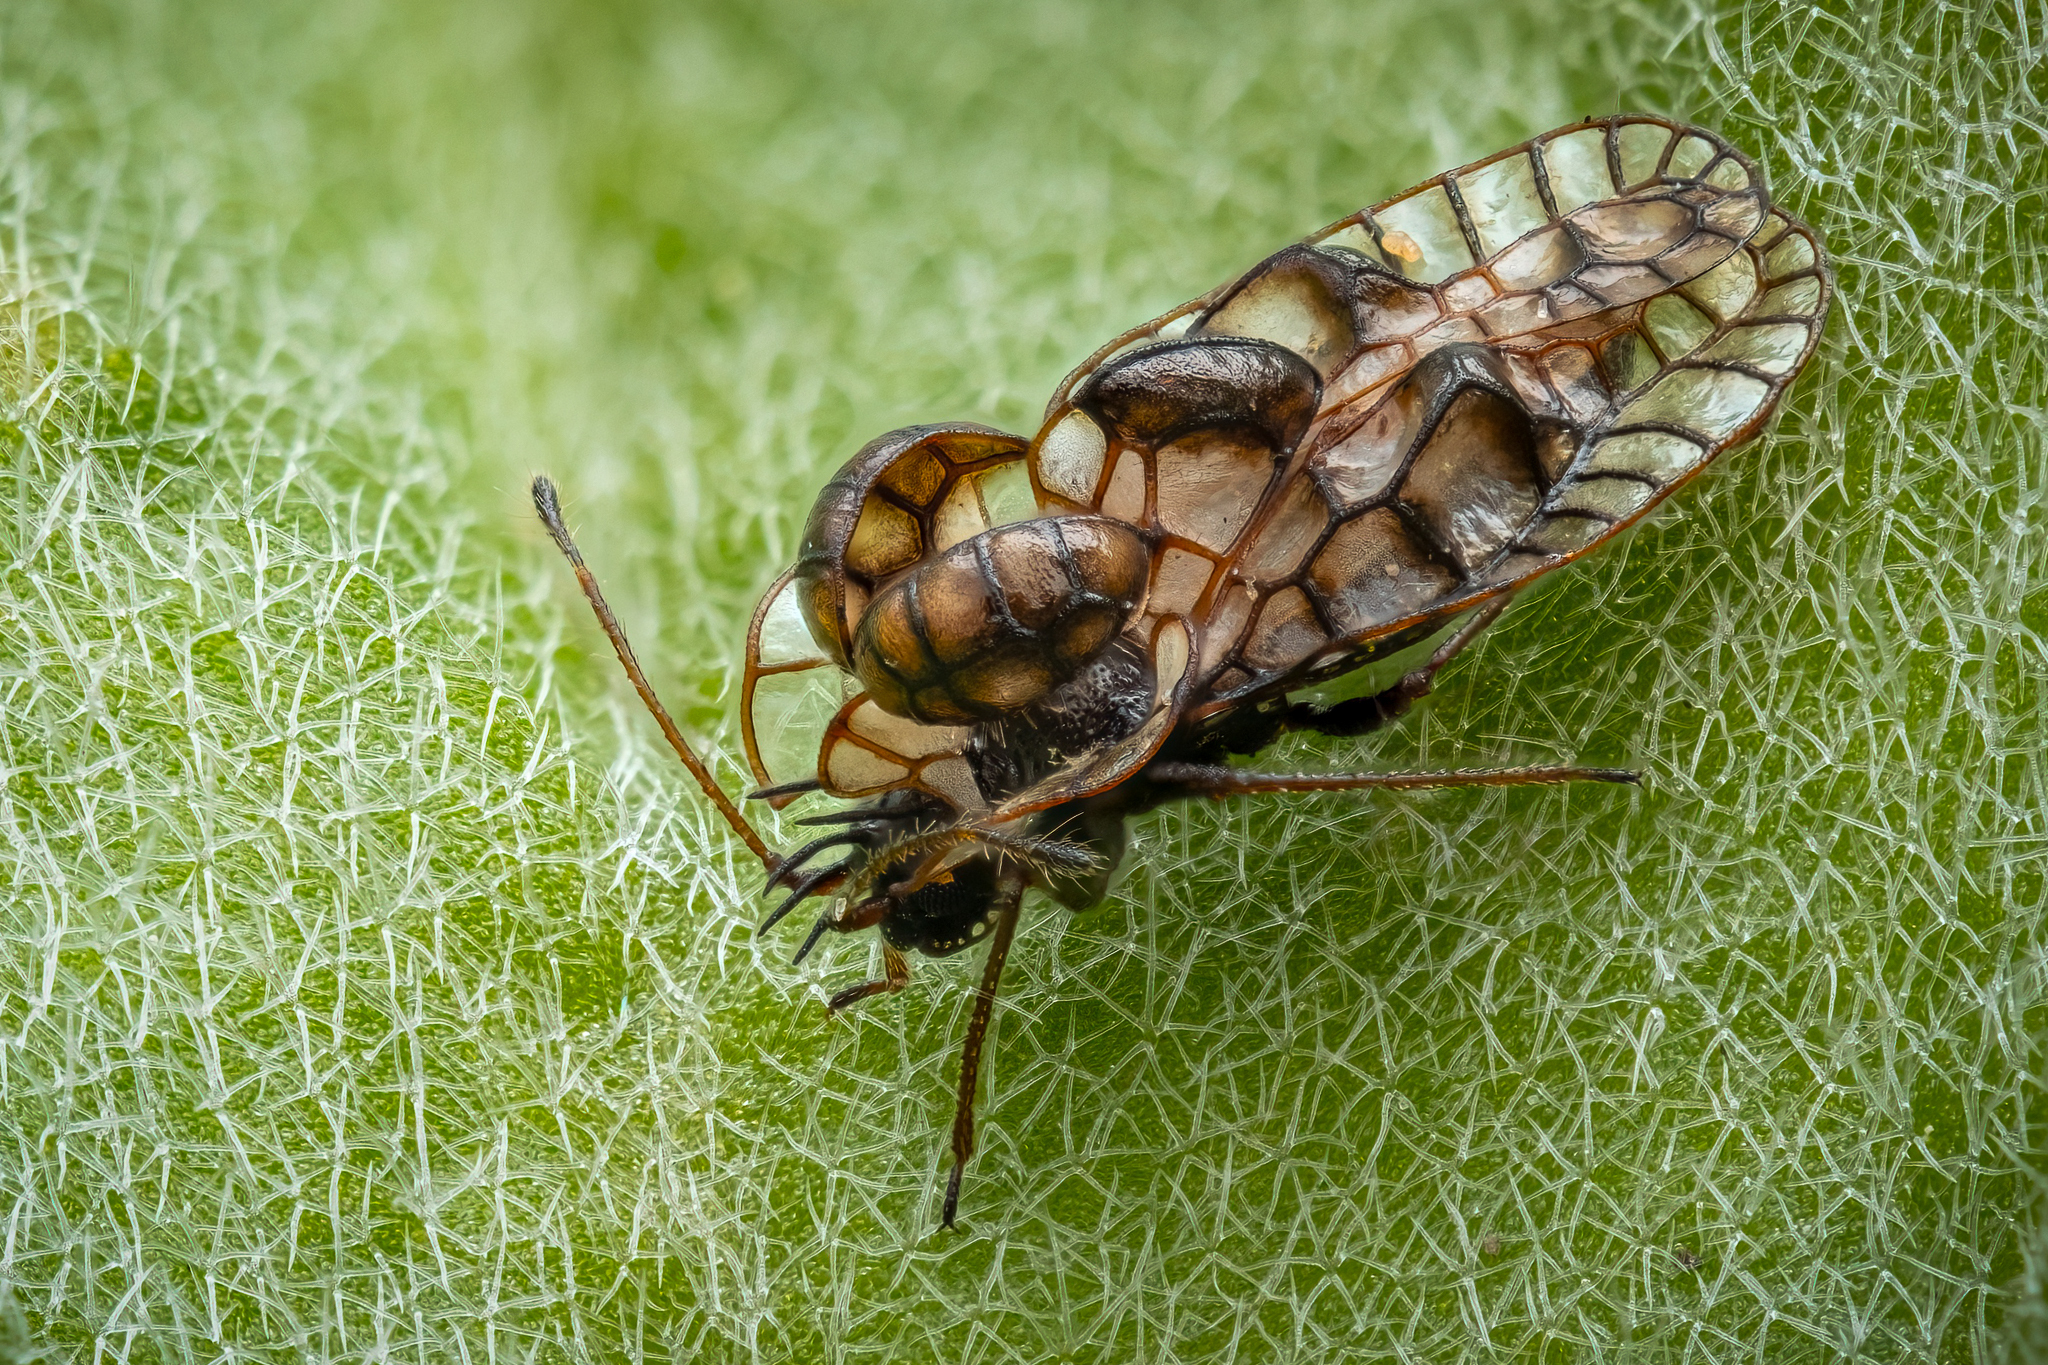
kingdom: Animalia
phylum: Arthropoda
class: Insecta
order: Hemiptera
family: Tingidae
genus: Galeatus
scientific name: Galeatus affinis
